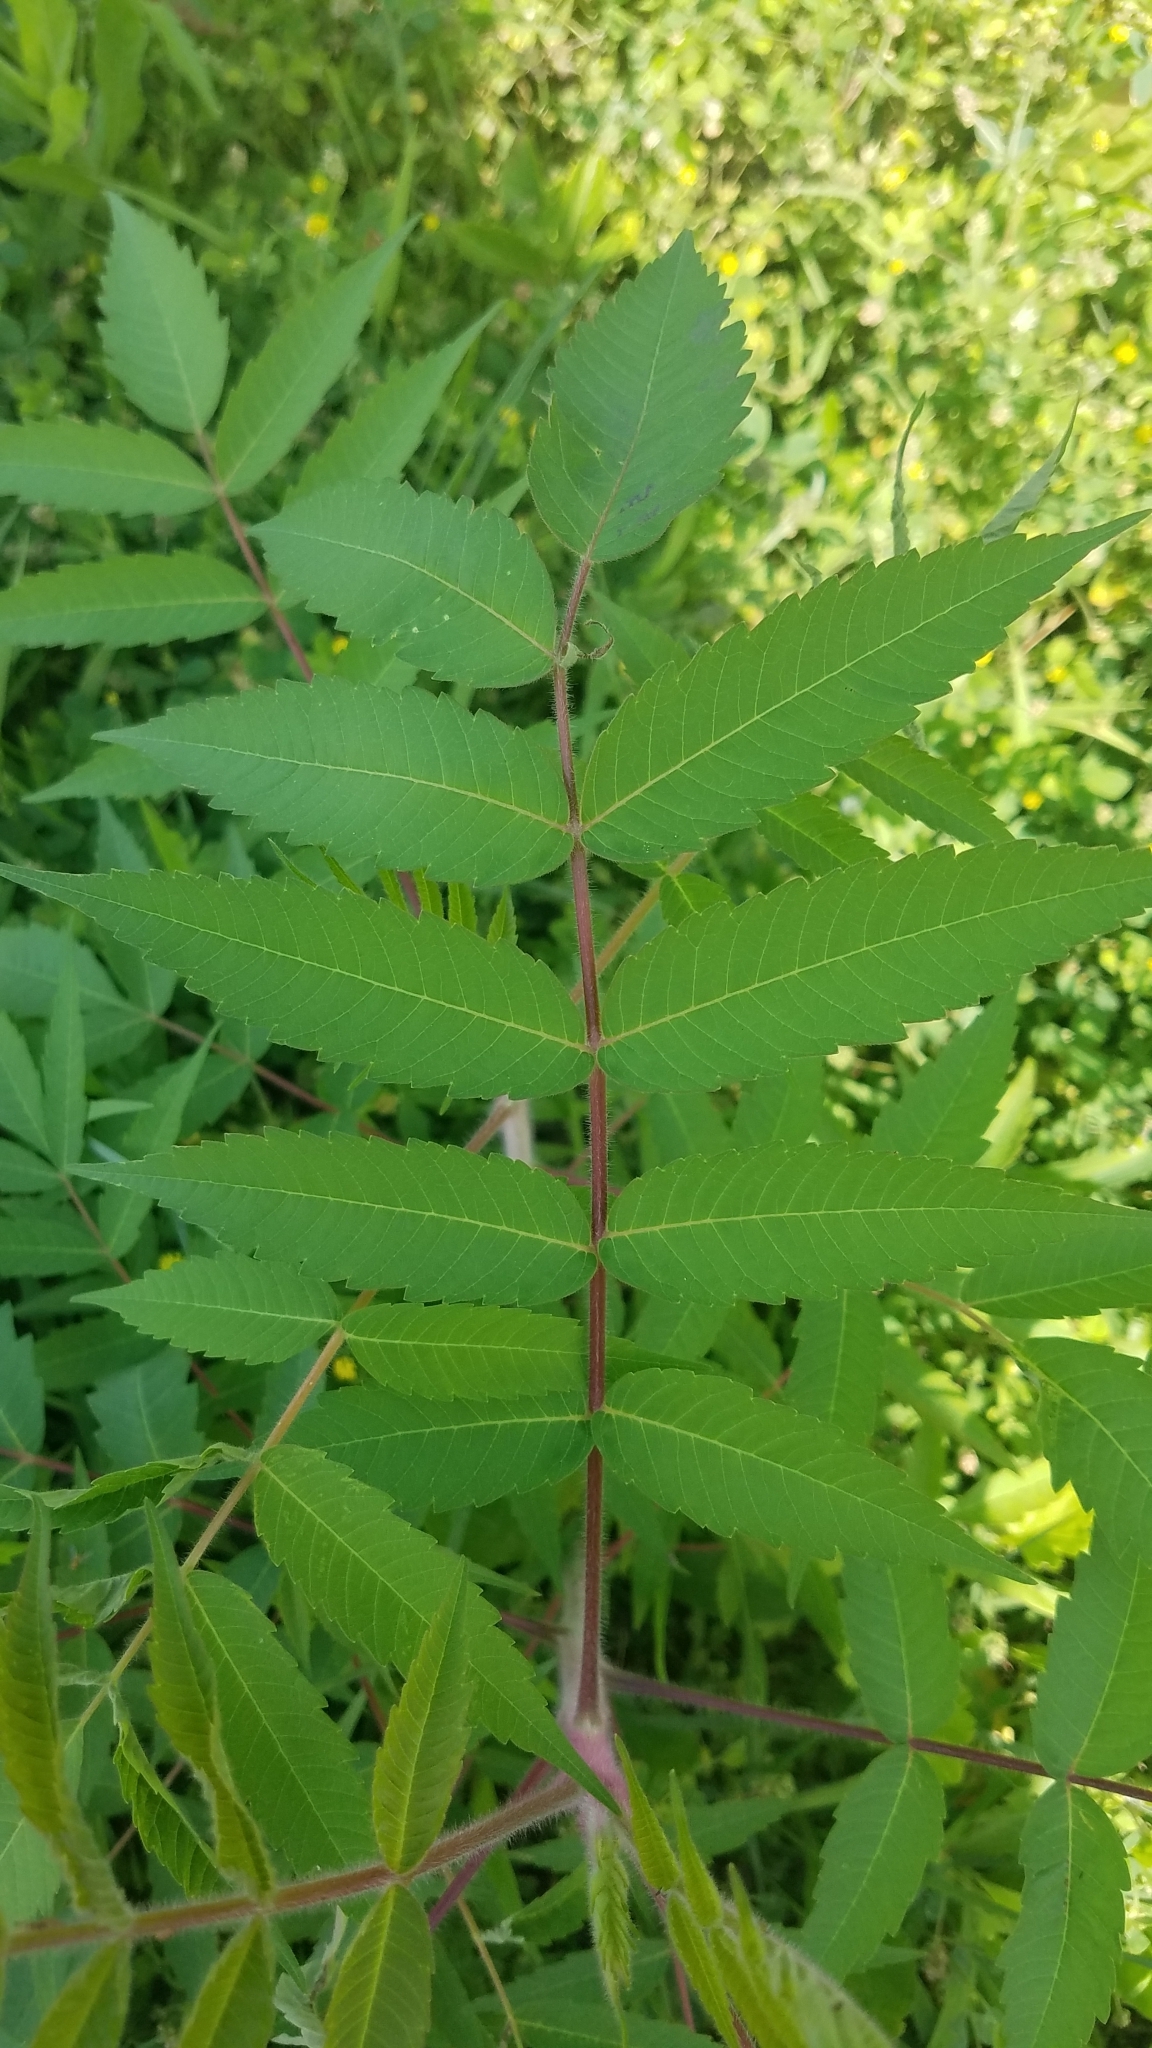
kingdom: Plantae
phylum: Tracheophyta
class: Magnoliopsida
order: Sapindales
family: Anacardiaceae
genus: Rhus
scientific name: Rhus typhina
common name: Staghorn sumac
